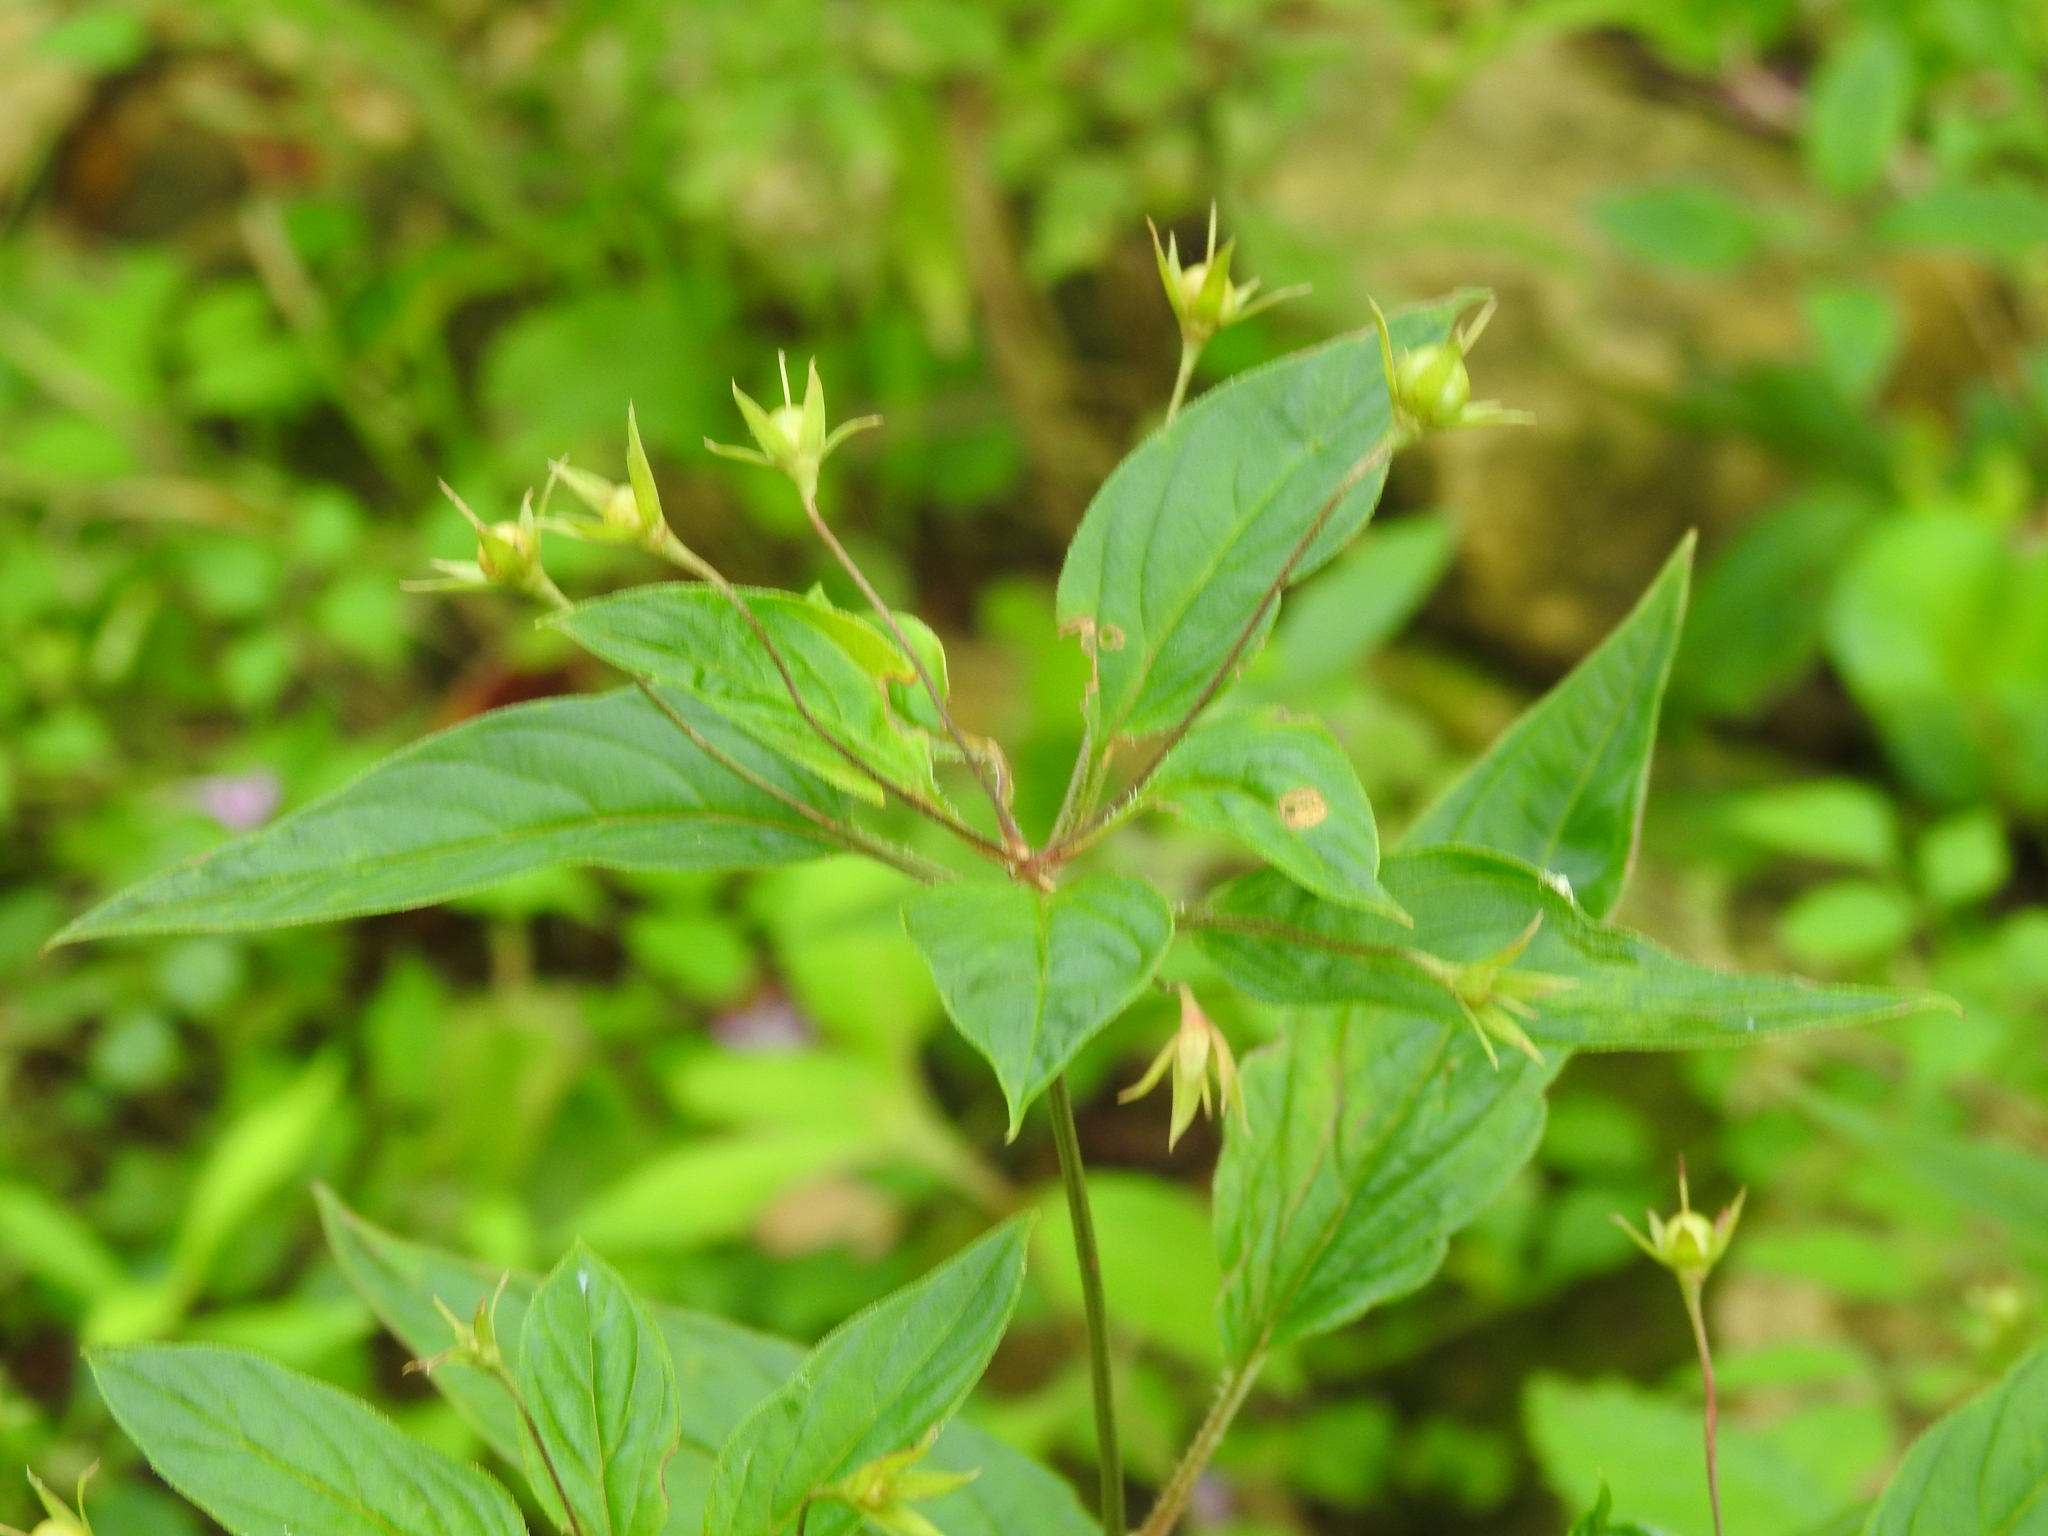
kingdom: Plantae
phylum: Tracheophyta
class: Magnoliopsida
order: Ericales
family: Primulaceae
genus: Lysimachia
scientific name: Lysimachia ciliata
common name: Fringed loosestrife
